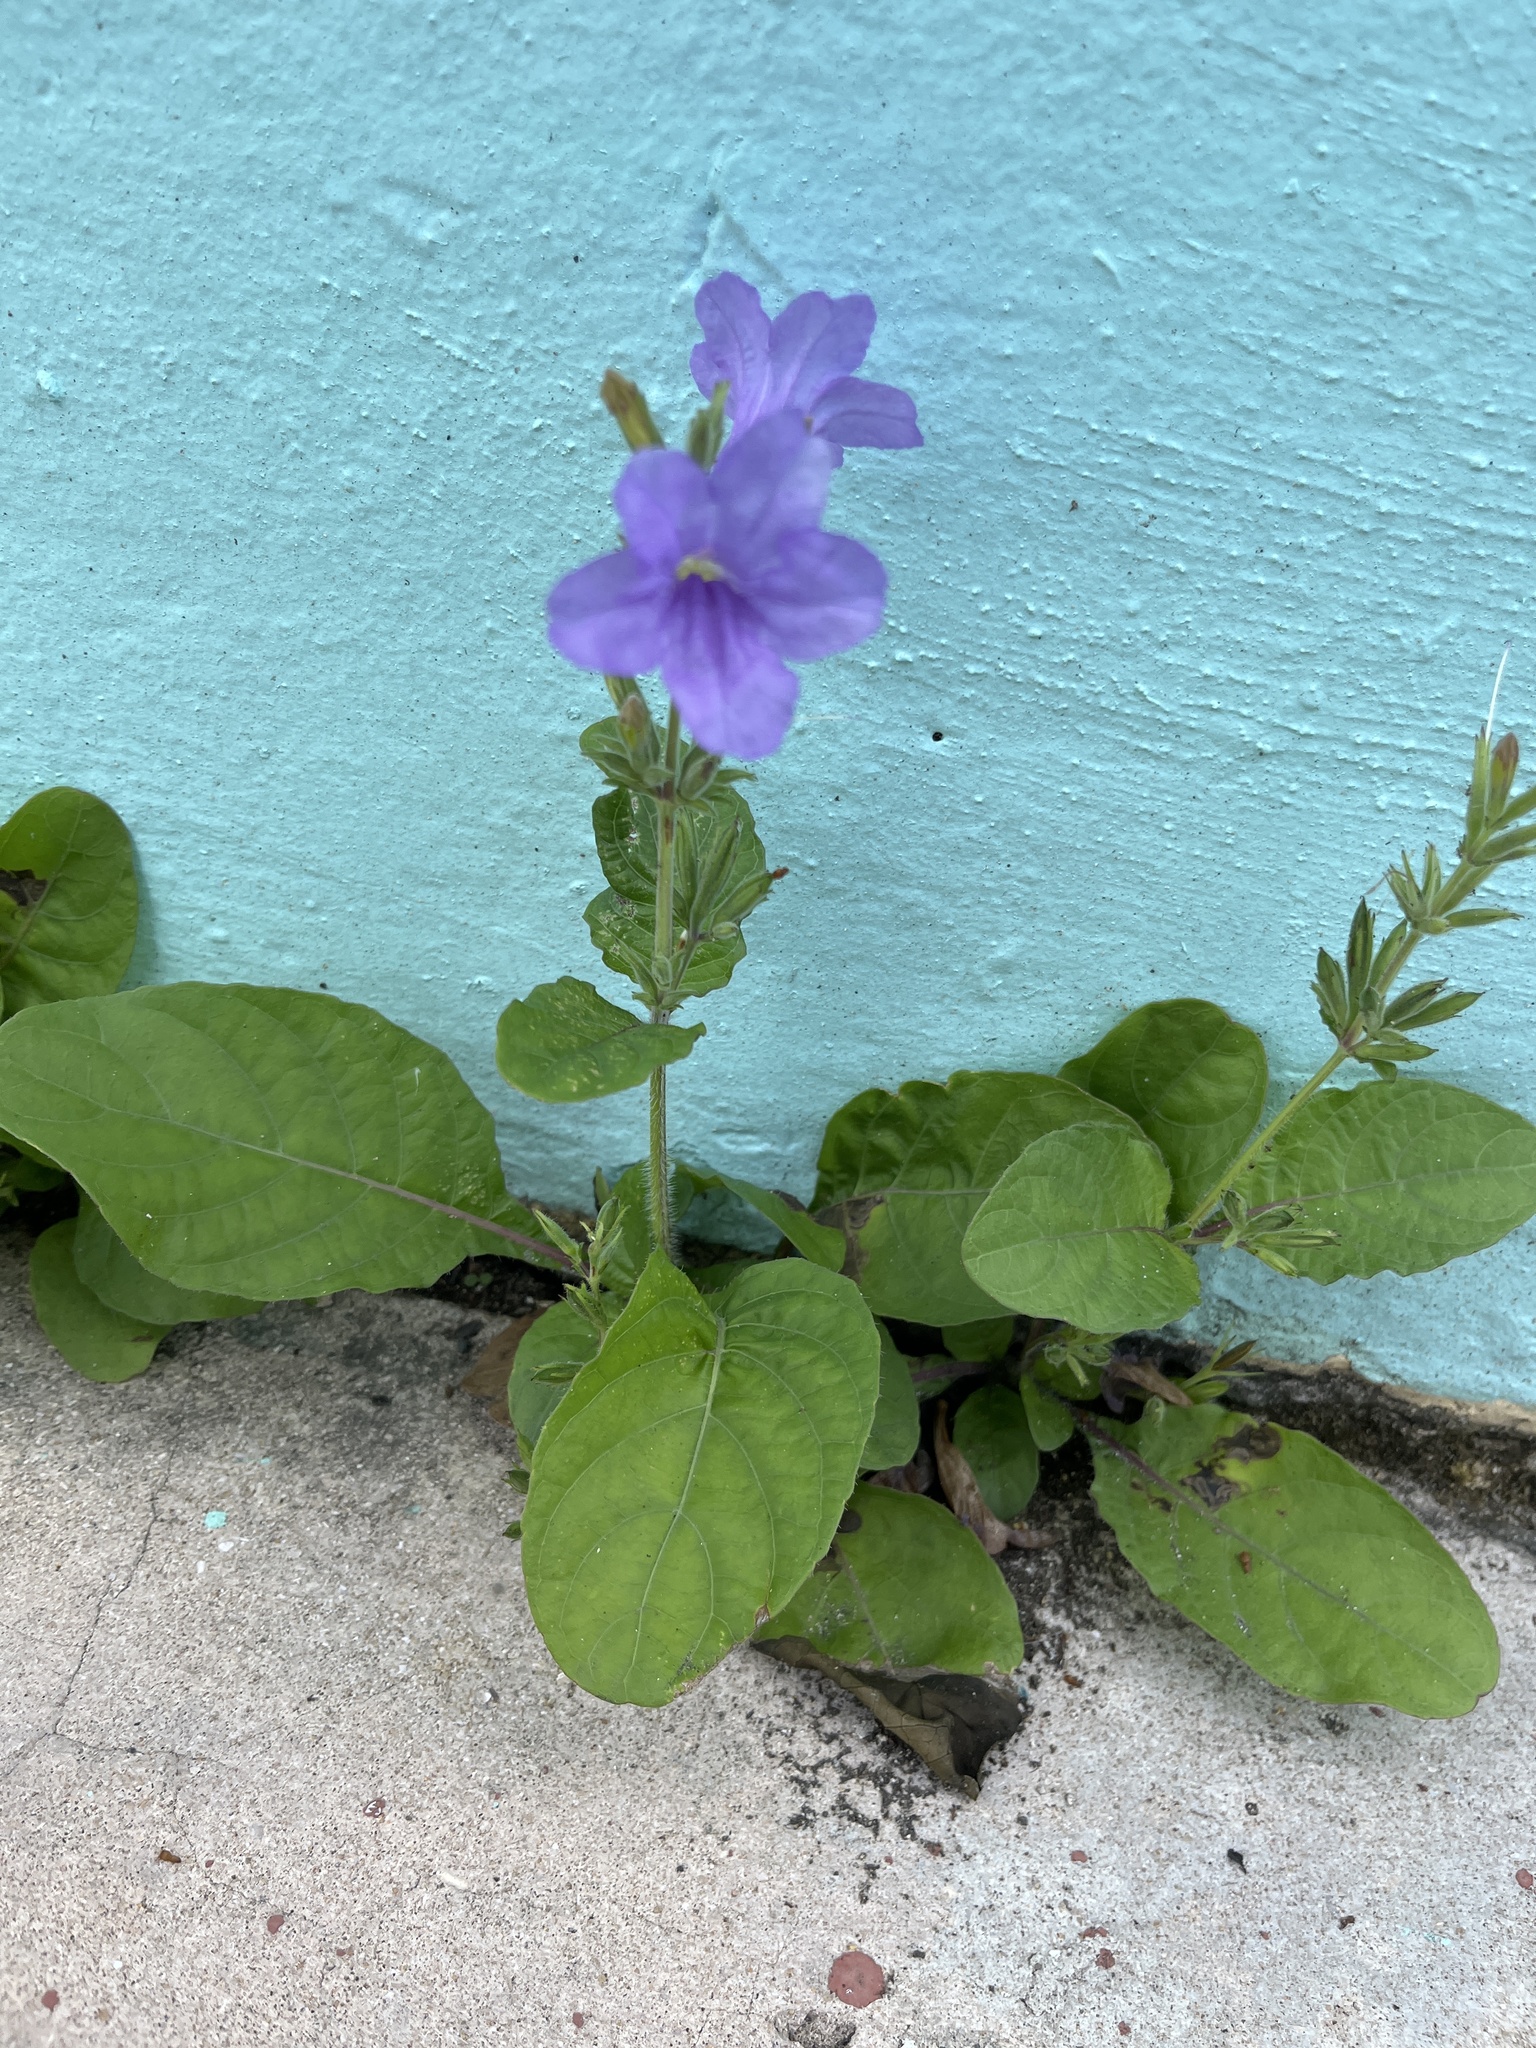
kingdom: Plantae
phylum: Tracheophyta
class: Magnoliopsida
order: Lamiales
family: Acanthaceae
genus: Ruellia
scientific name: Ruellia ciliatiflora
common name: Hairyflower wild petunia
